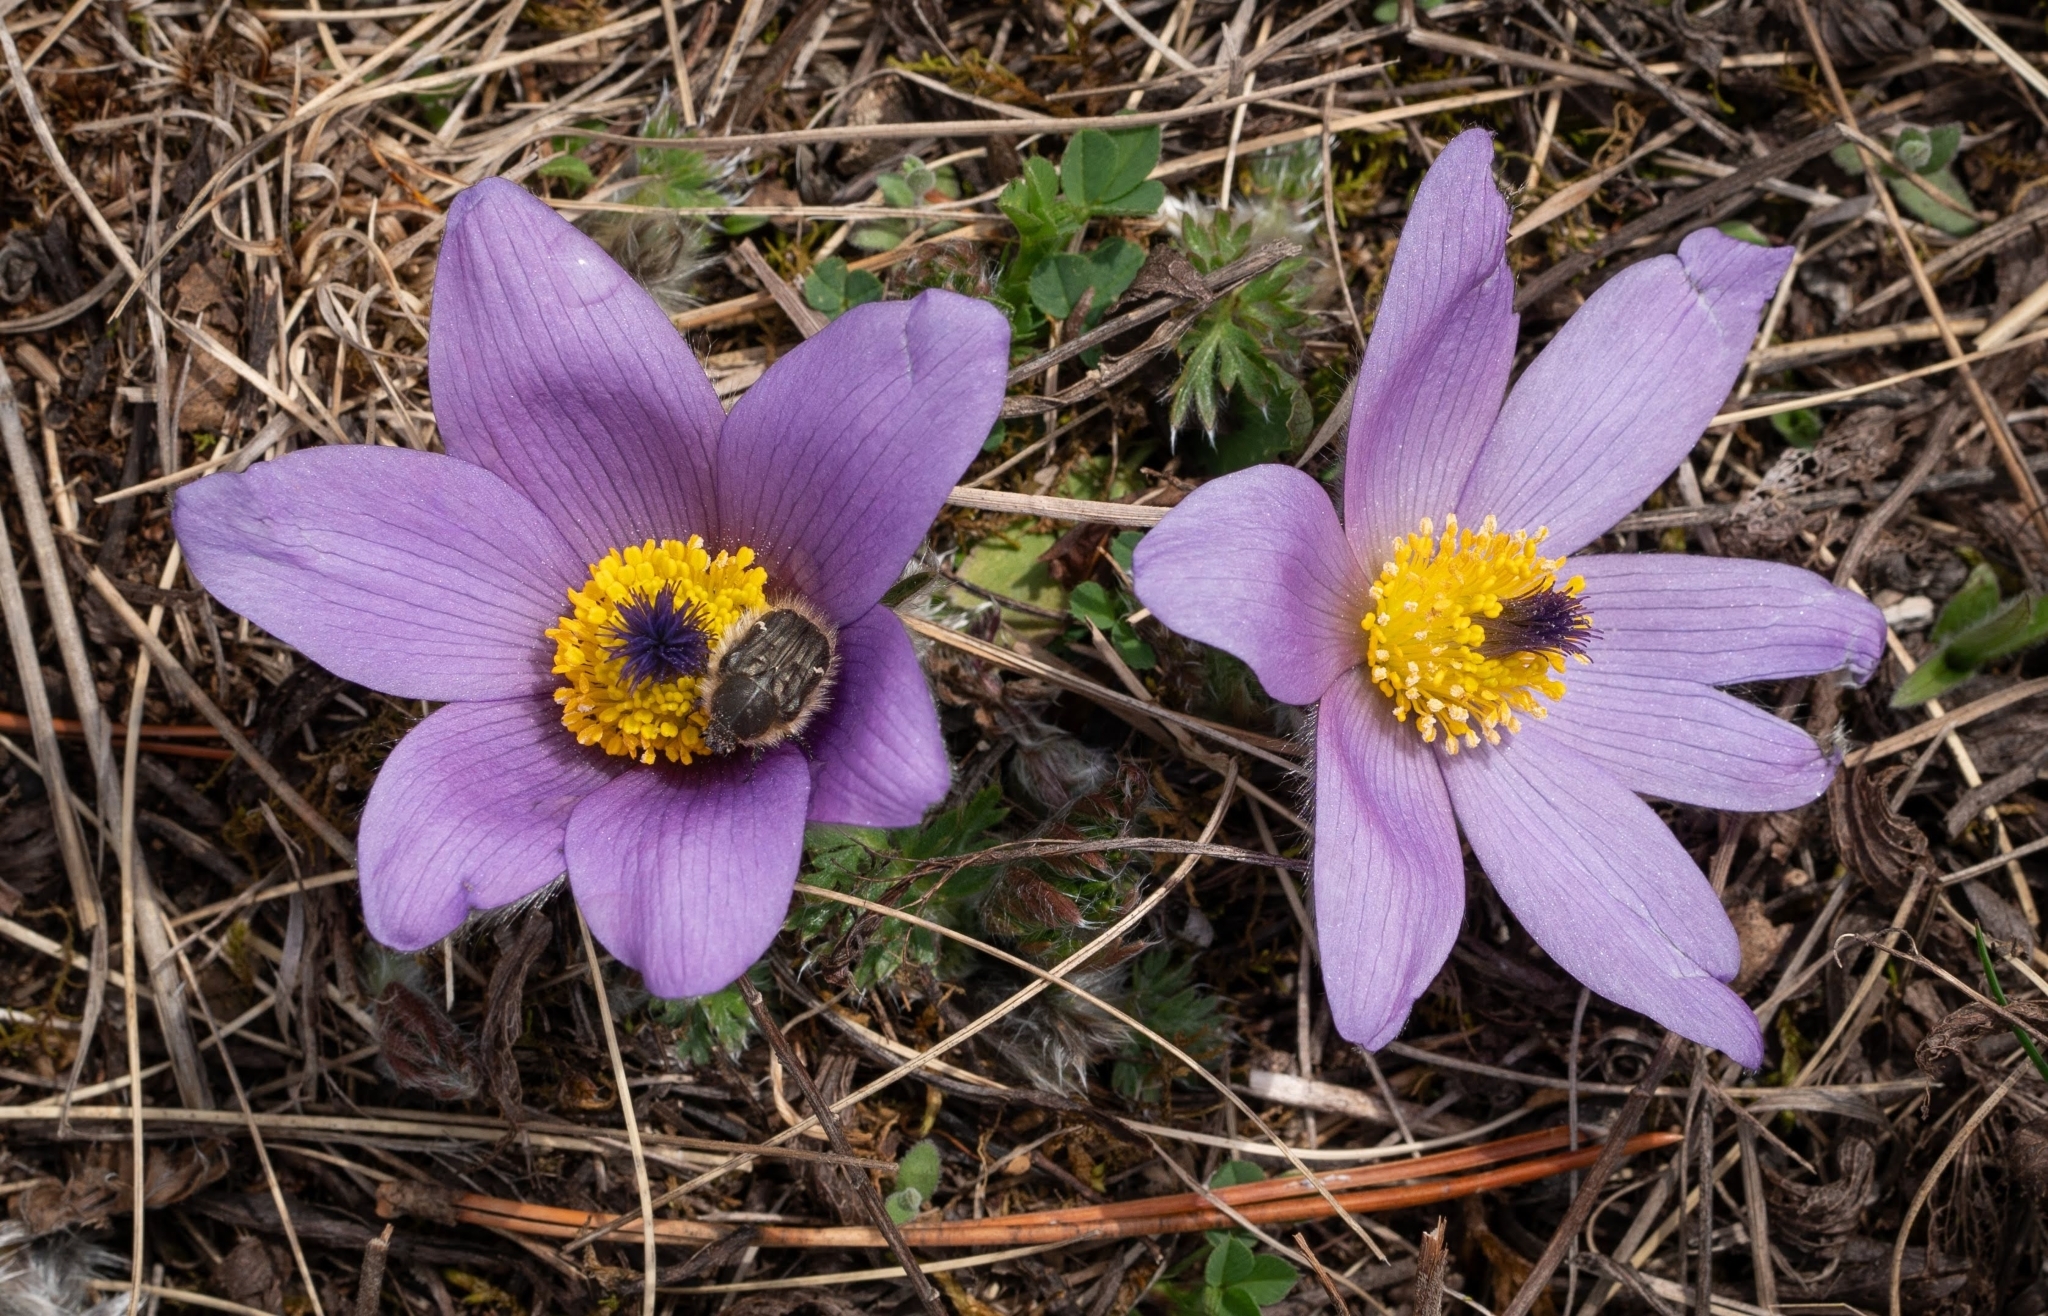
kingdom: Plantae
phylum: Tracheophyta
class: Magnoliopsida
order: Ranunculales
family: Ranunculaceae
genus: Pulsatilla
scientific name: Pulsatilla grandis
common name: Greater pasque flower
